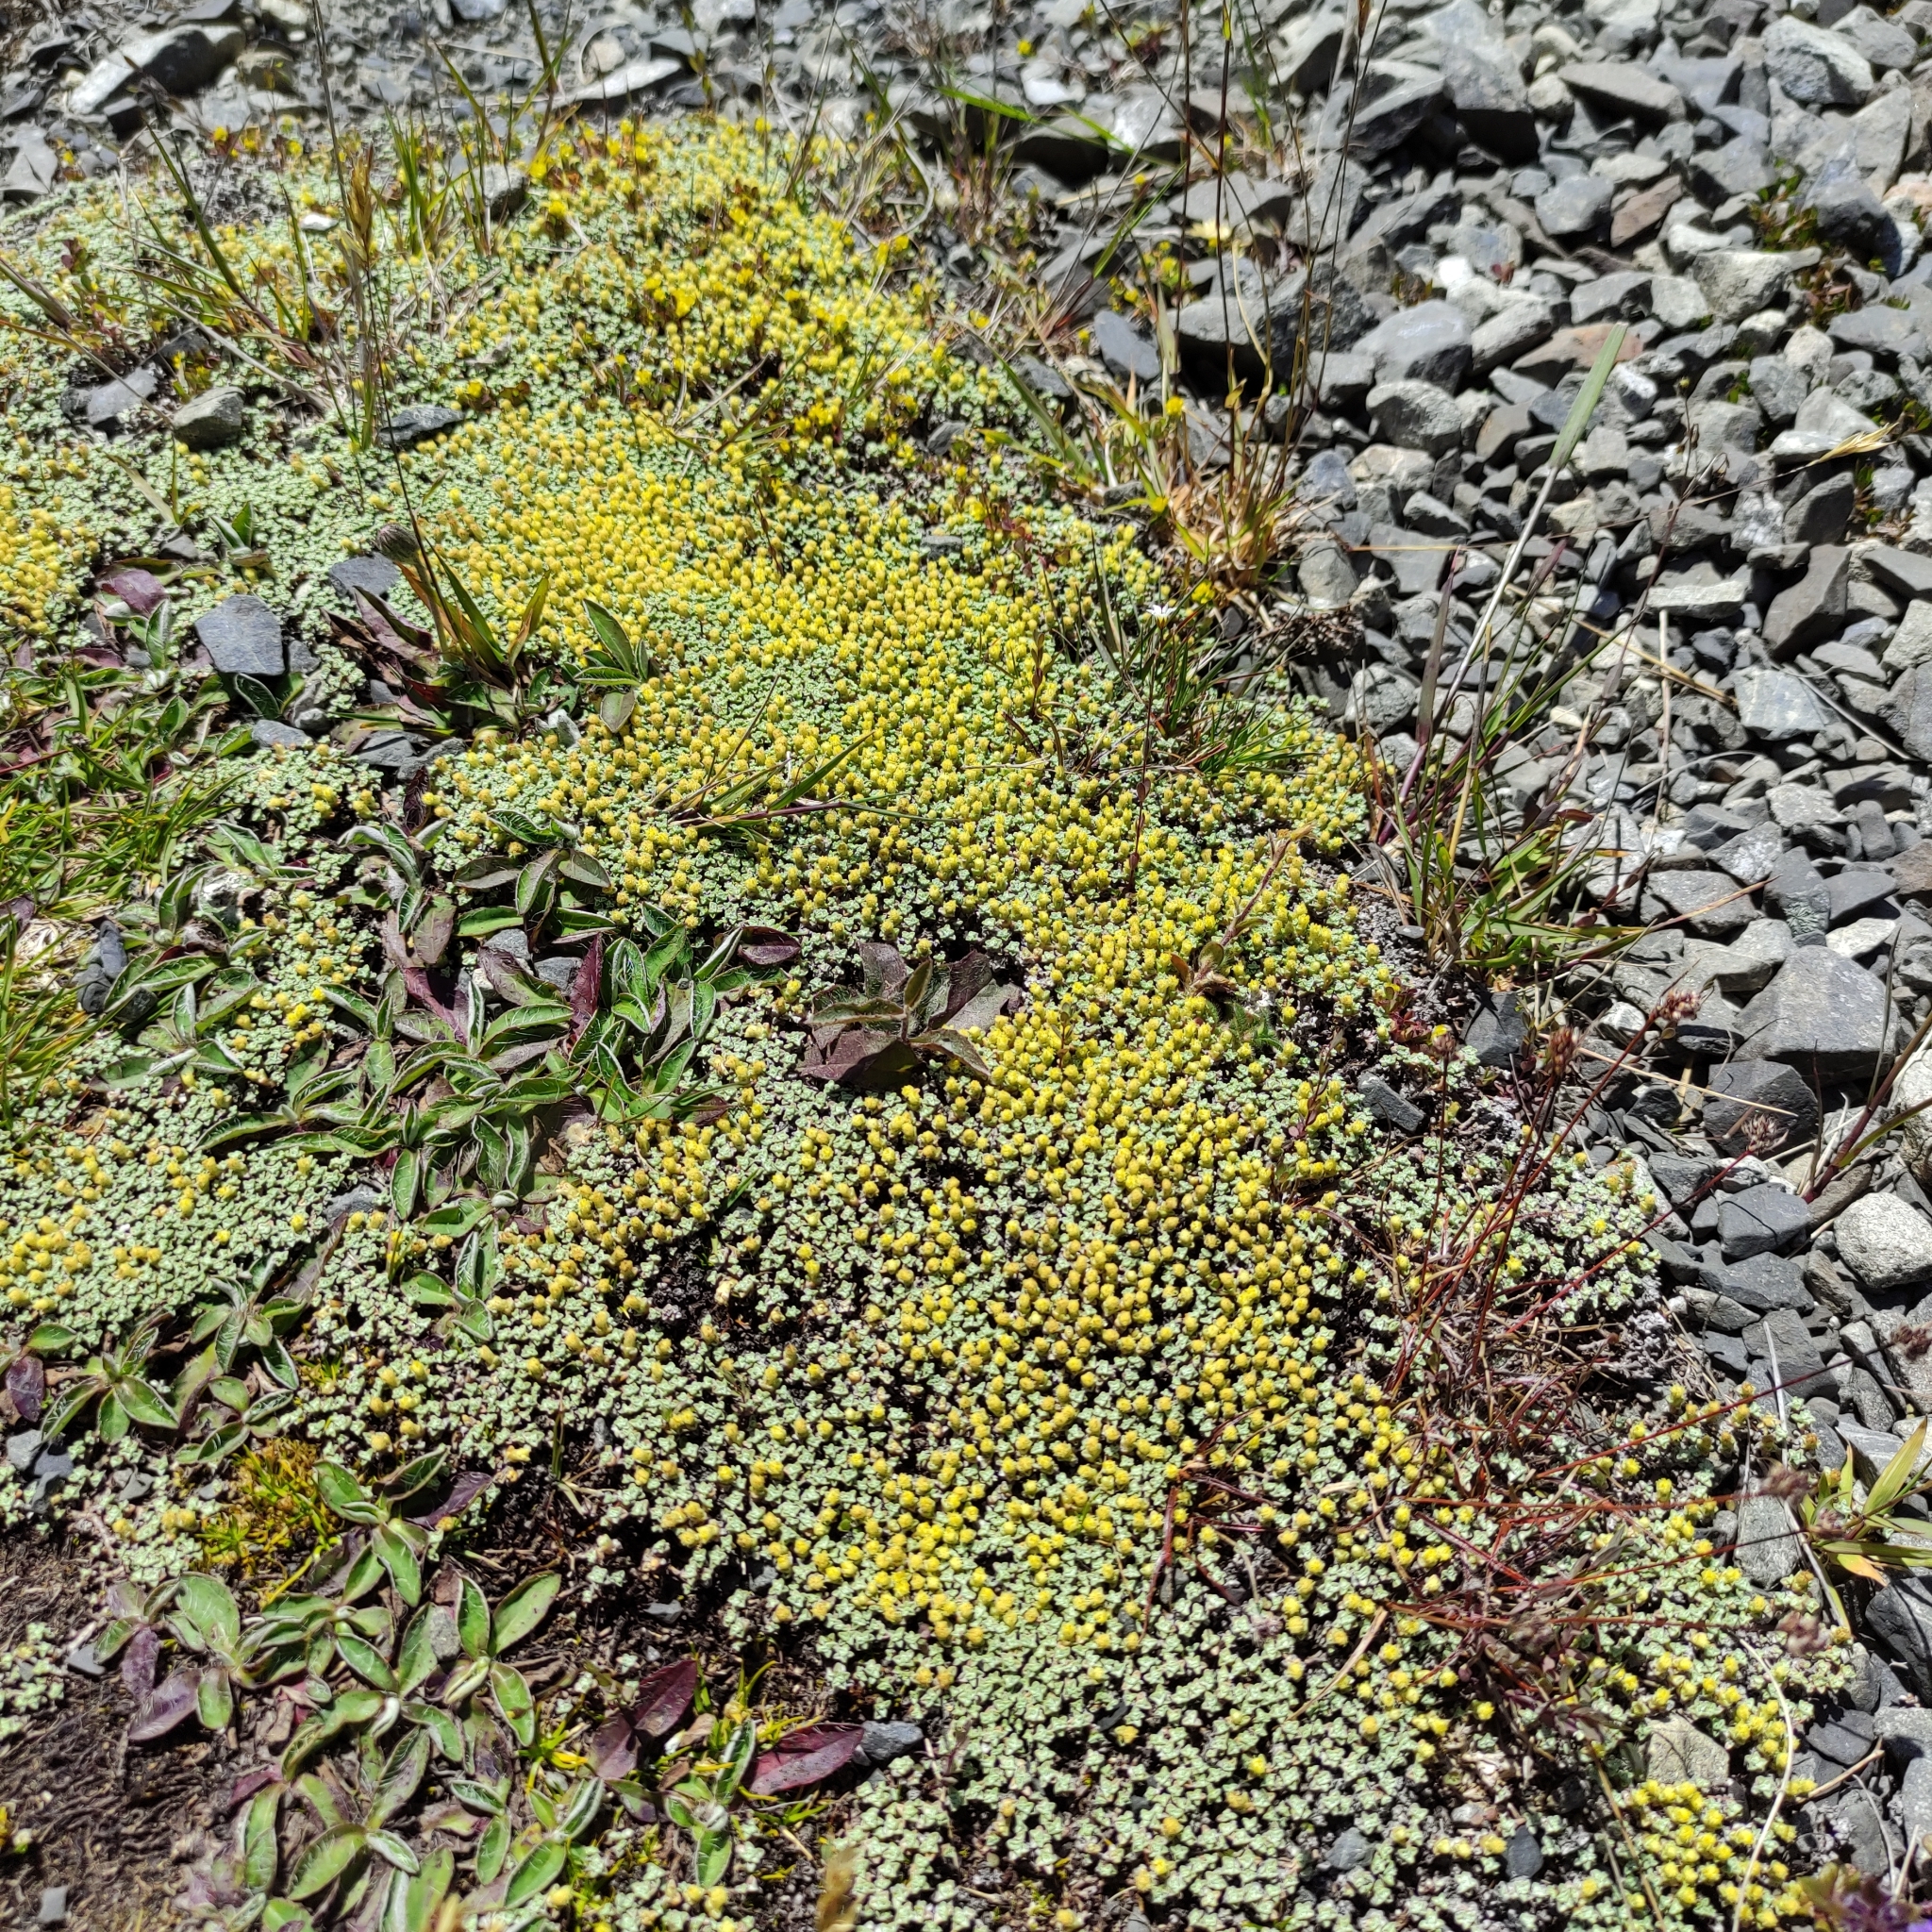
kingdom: Plantae
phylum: Tracheophyta
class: Magnoliopsida
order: Asterales
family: Asteraceae
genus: Raoulia
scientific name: Raoulia australis
